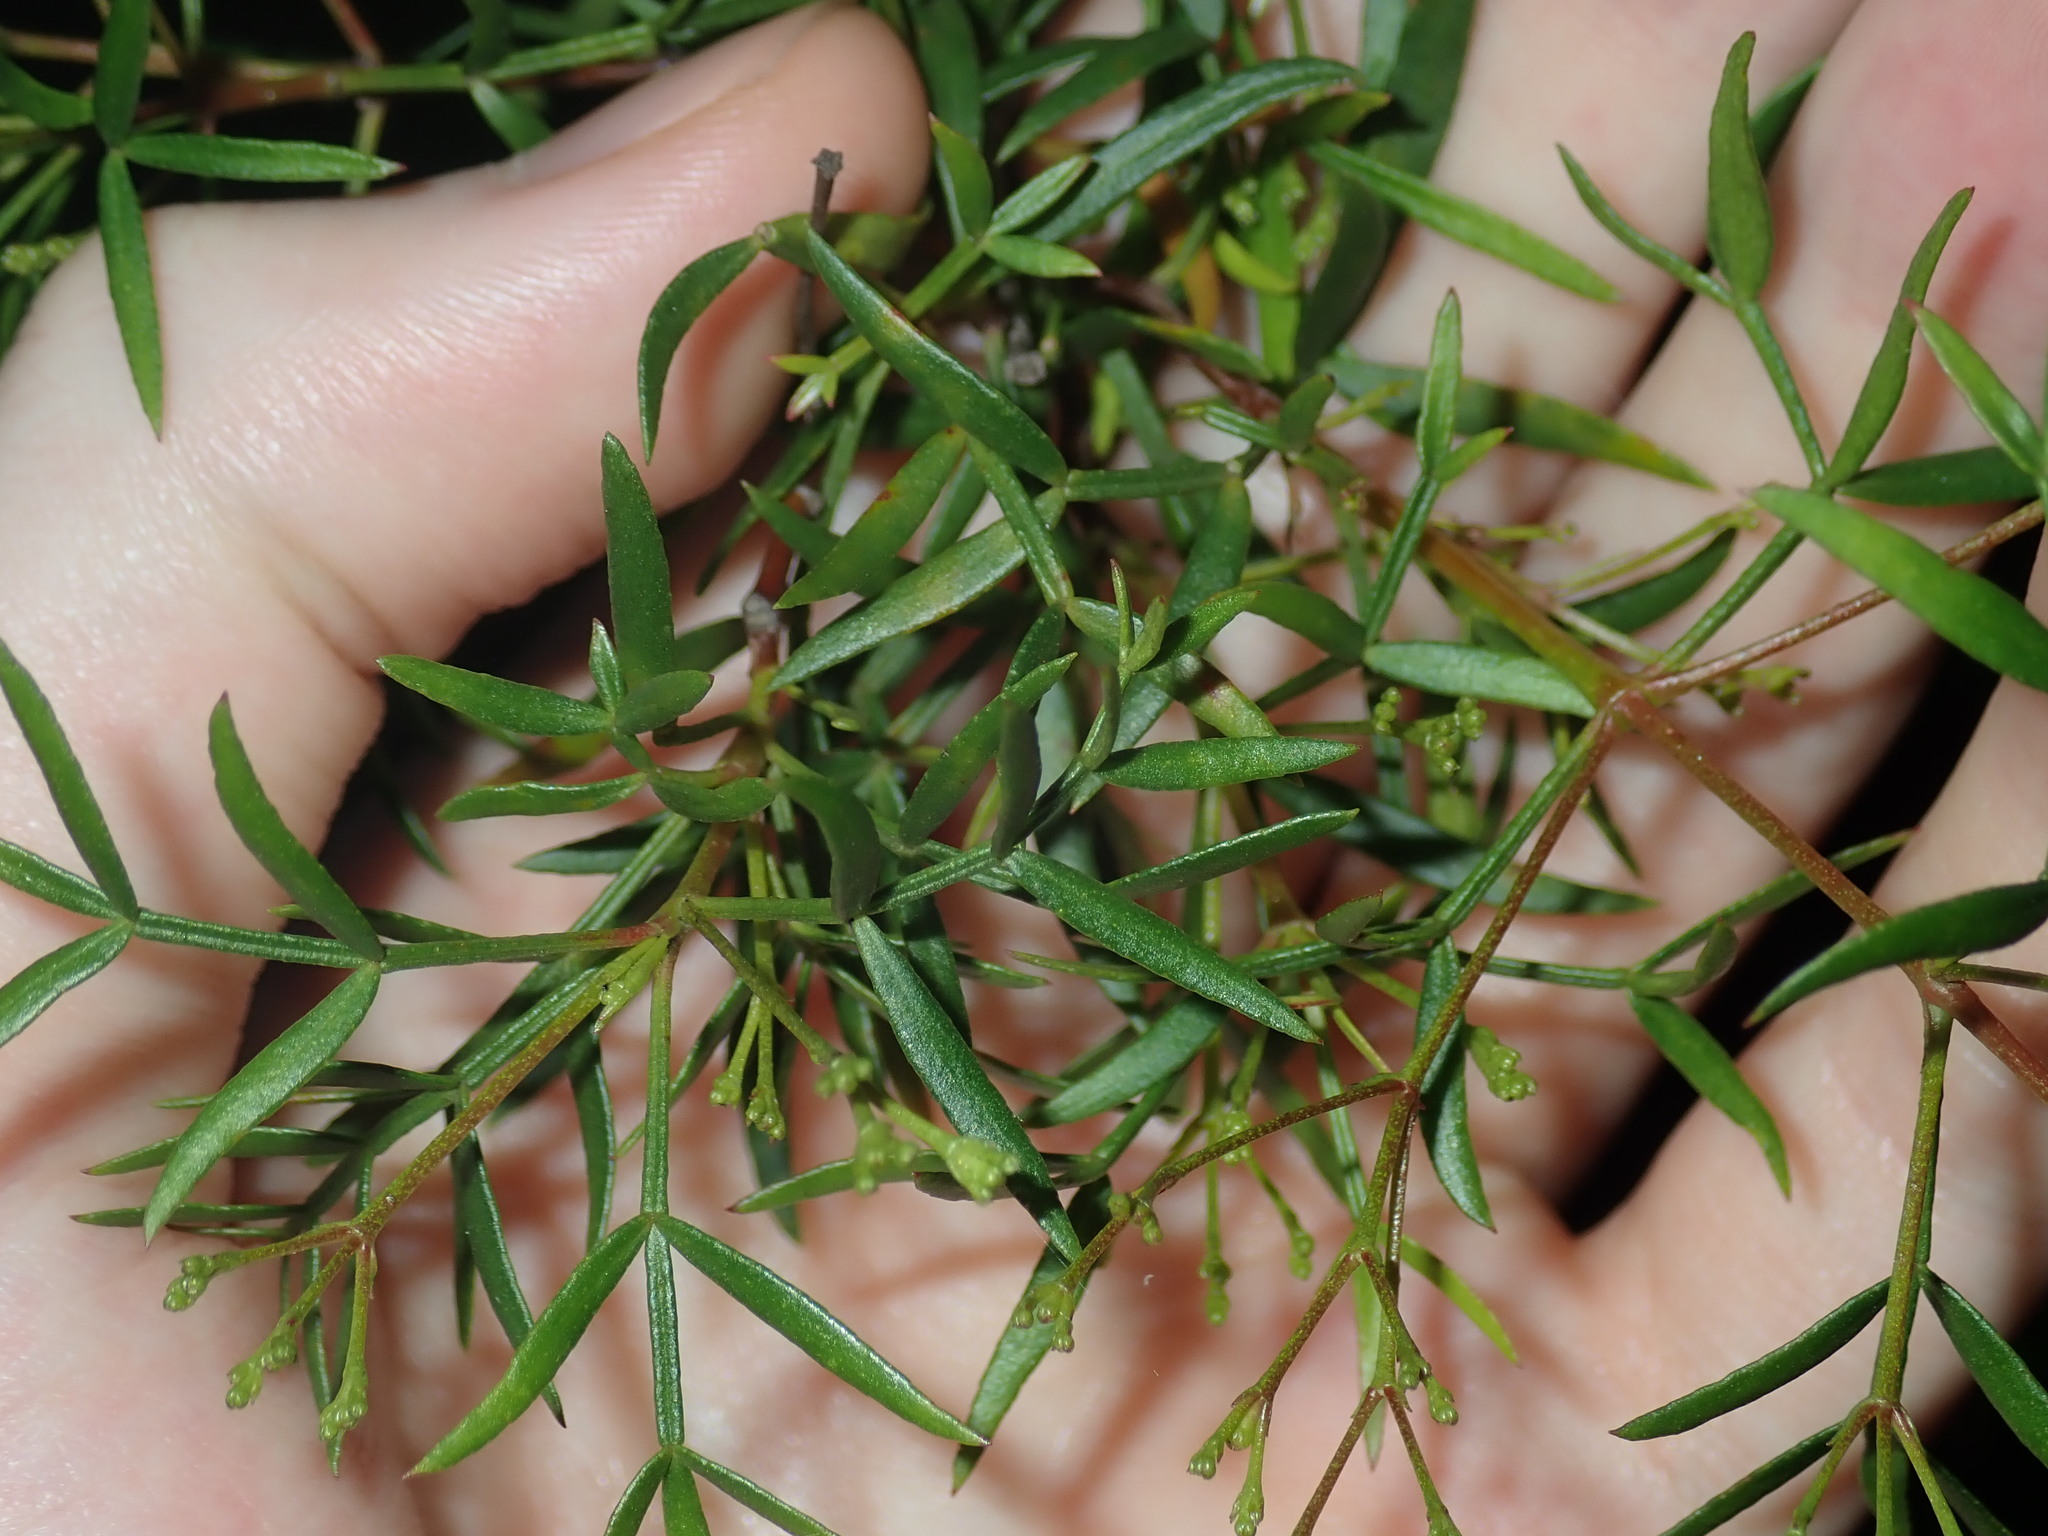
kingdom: Plantae
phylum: Tracheophyta
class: Magnoliopsida
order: Sapindales
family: Rutaceae
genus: Boronia
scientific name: Boronia pinnata
